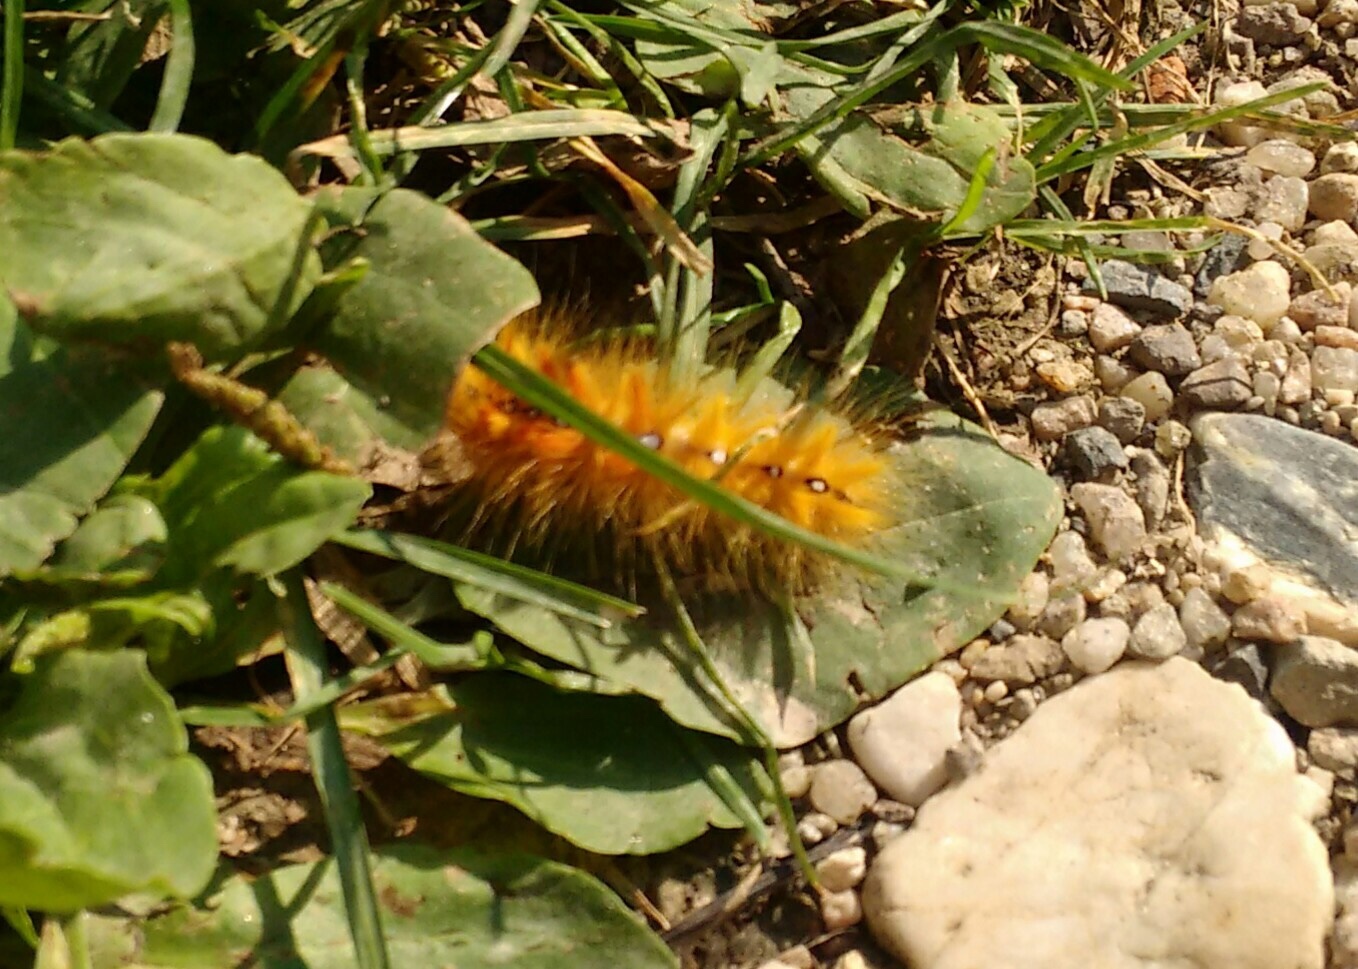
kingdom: Animalia
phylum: Arthropoda
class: Insecta
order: Lepidoptera
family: Noctuidae
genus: Acronicta
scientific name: Acronicta aceris
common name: Sycamore
